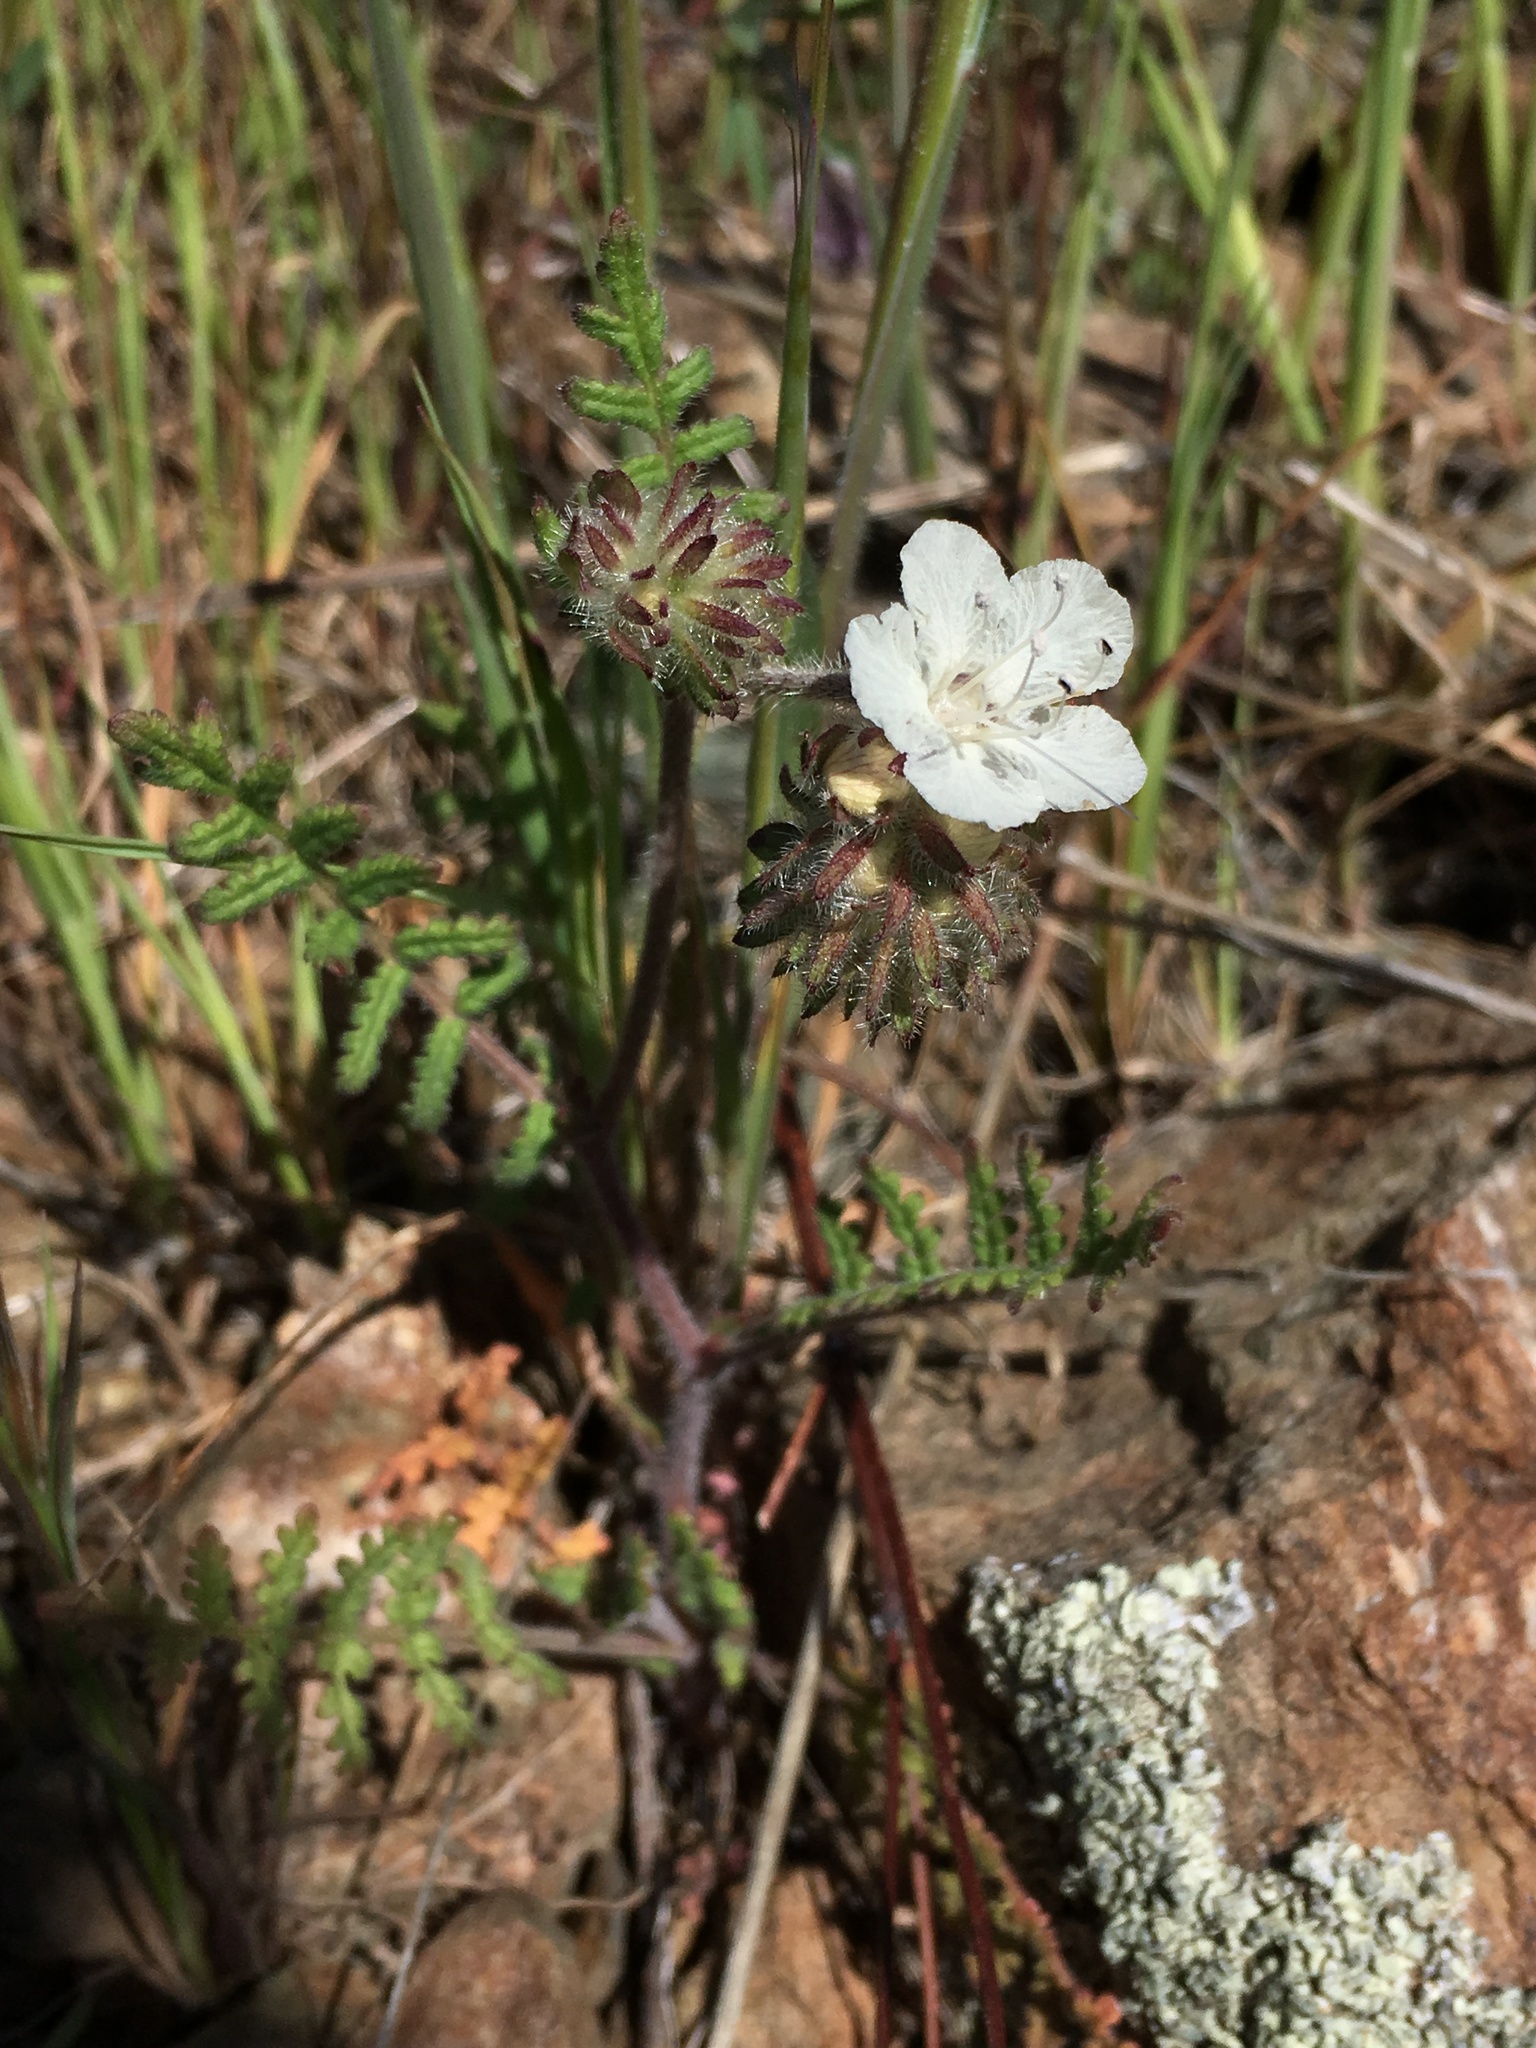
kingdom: Plantae
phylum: Tracheophyta
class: Magnoliopsida
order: Boraginales
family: Hydrophyllaceae
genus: Phacelia
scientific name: Phacelia distans
